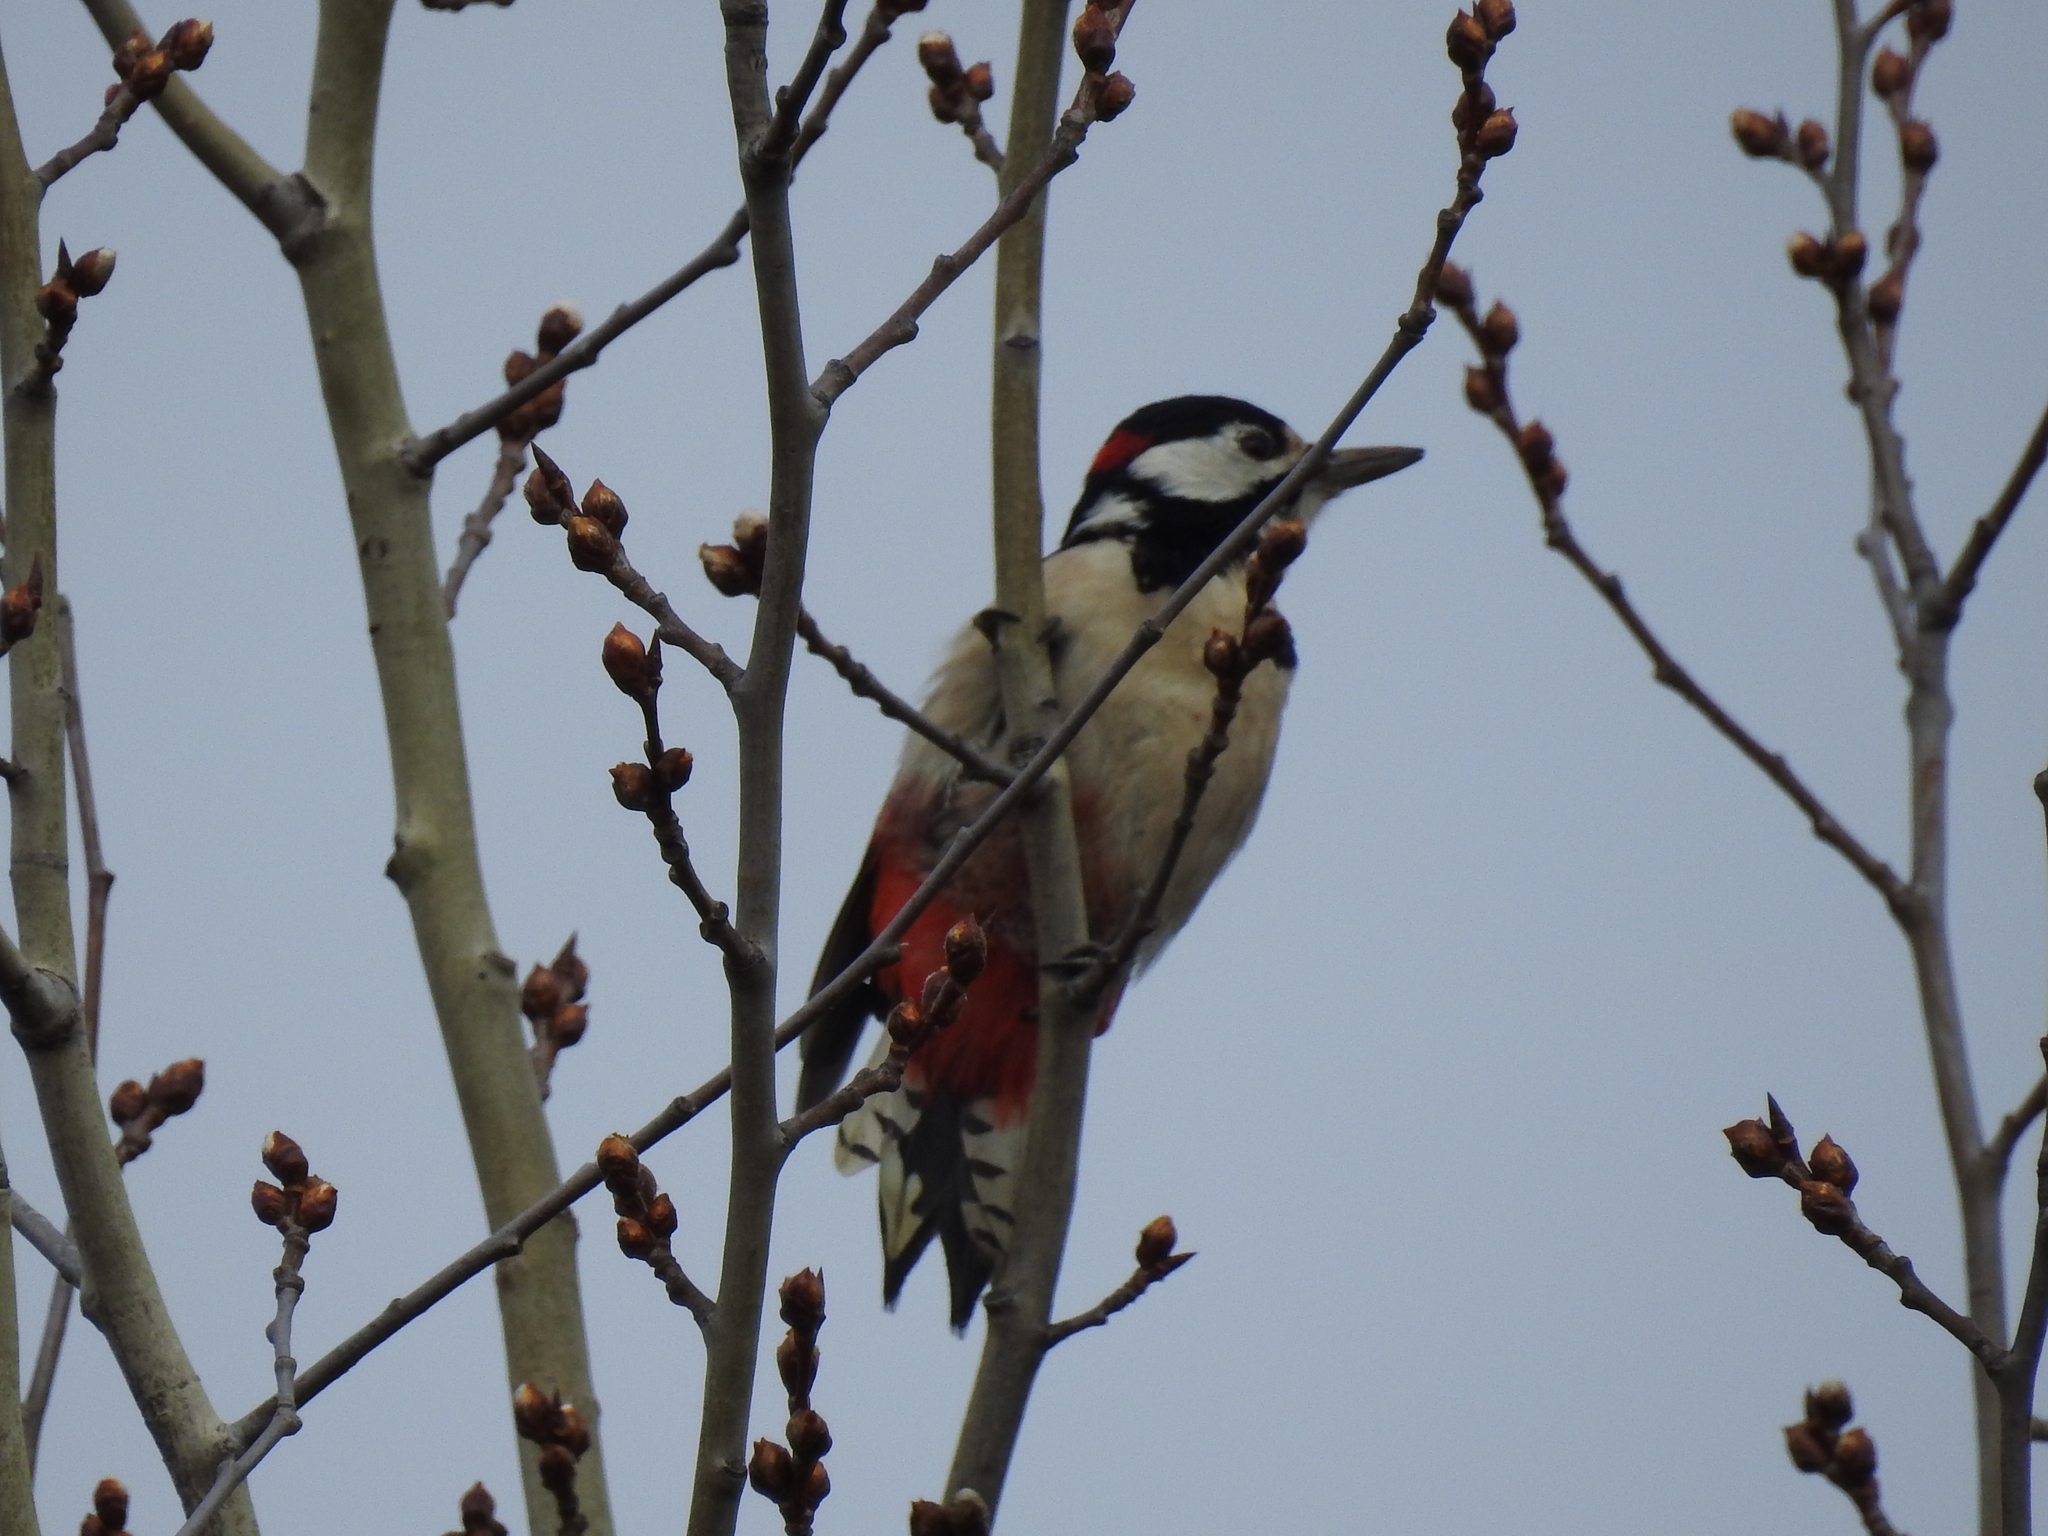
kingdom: Animalia
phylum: Chordata
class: Aves
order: Piciformes
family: Picidae
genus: Dendrocopos
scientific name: Dendrocopos major
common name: Great spotted woodpecker
